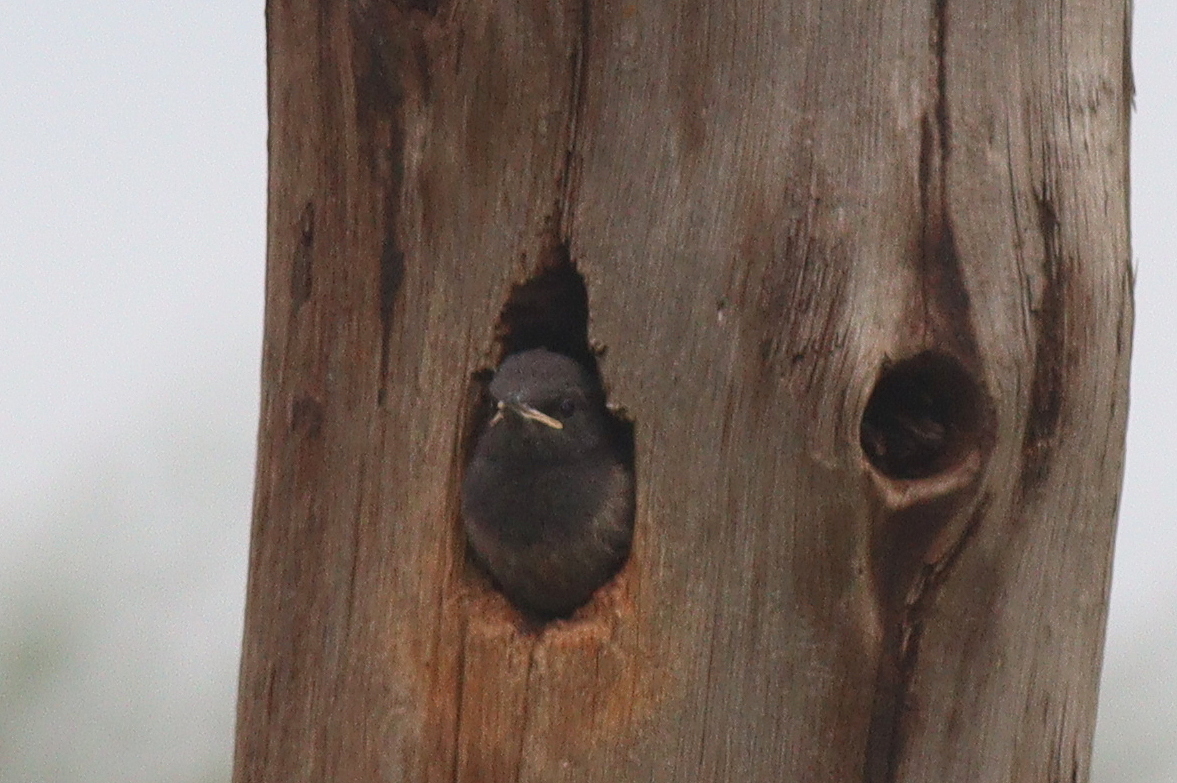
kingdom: Animalia
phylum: Chordata
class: Aves
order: Passeriformes
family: Sturnidae
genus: Lamprotornis
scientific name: Lamprotornis hildebrandti
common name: Hildebrandt's starling
